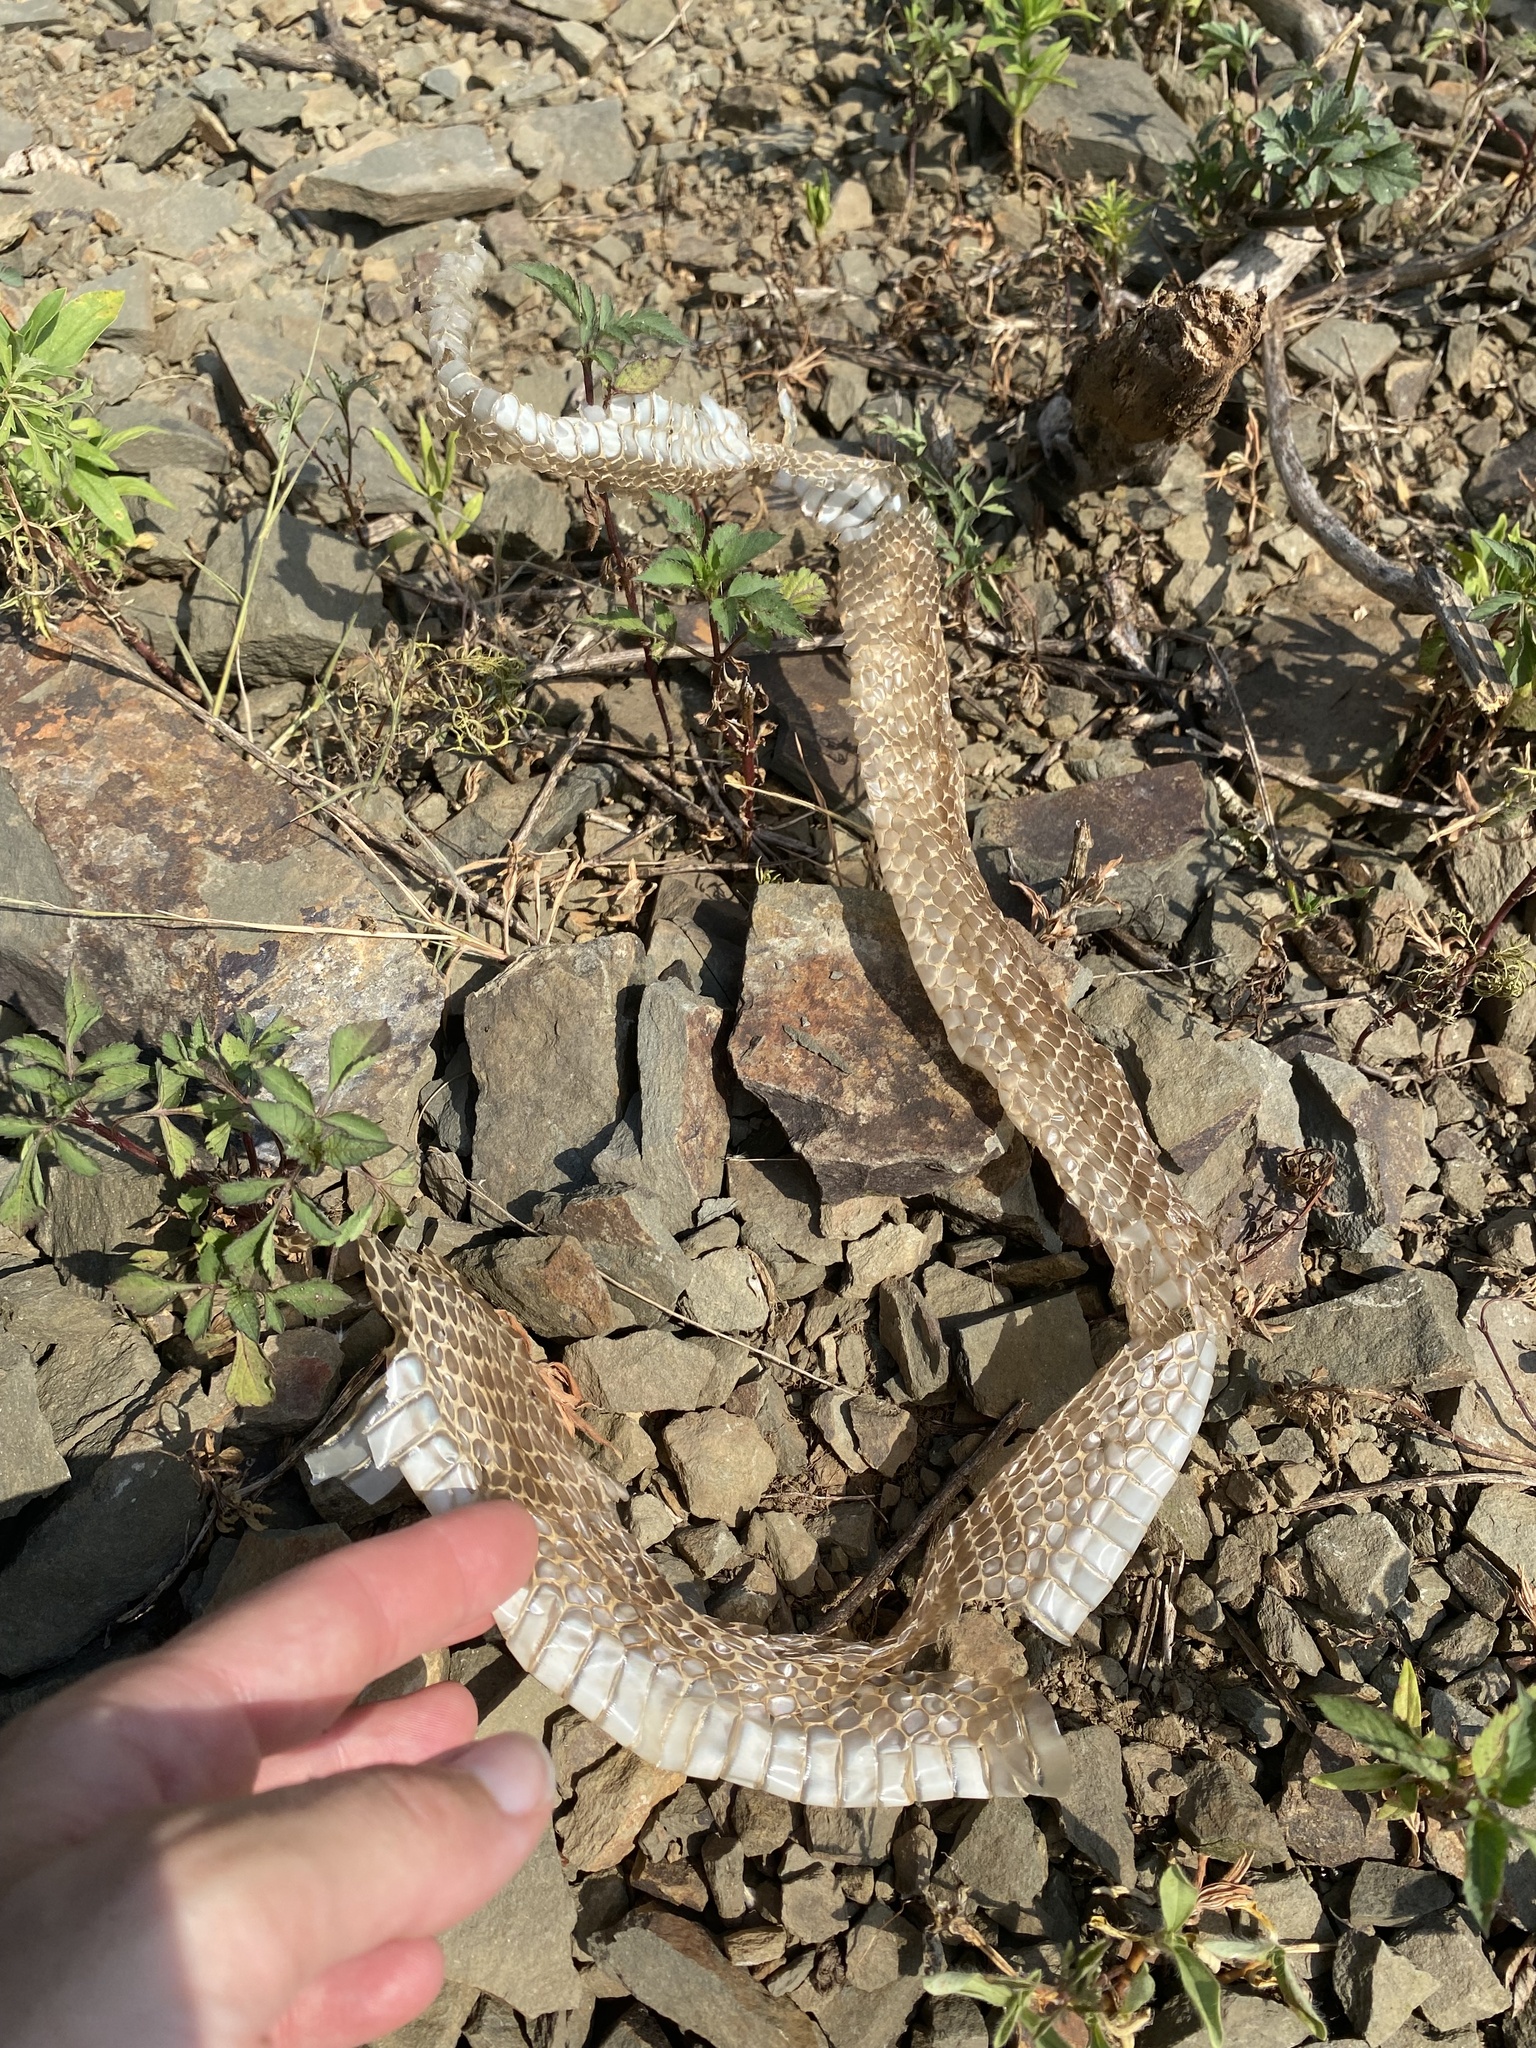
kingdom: Animalia
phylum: Chordata
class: Squamata
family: Elapidae
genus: Naja
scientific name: Naja mossambica
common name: Mozambique spitting cobra
